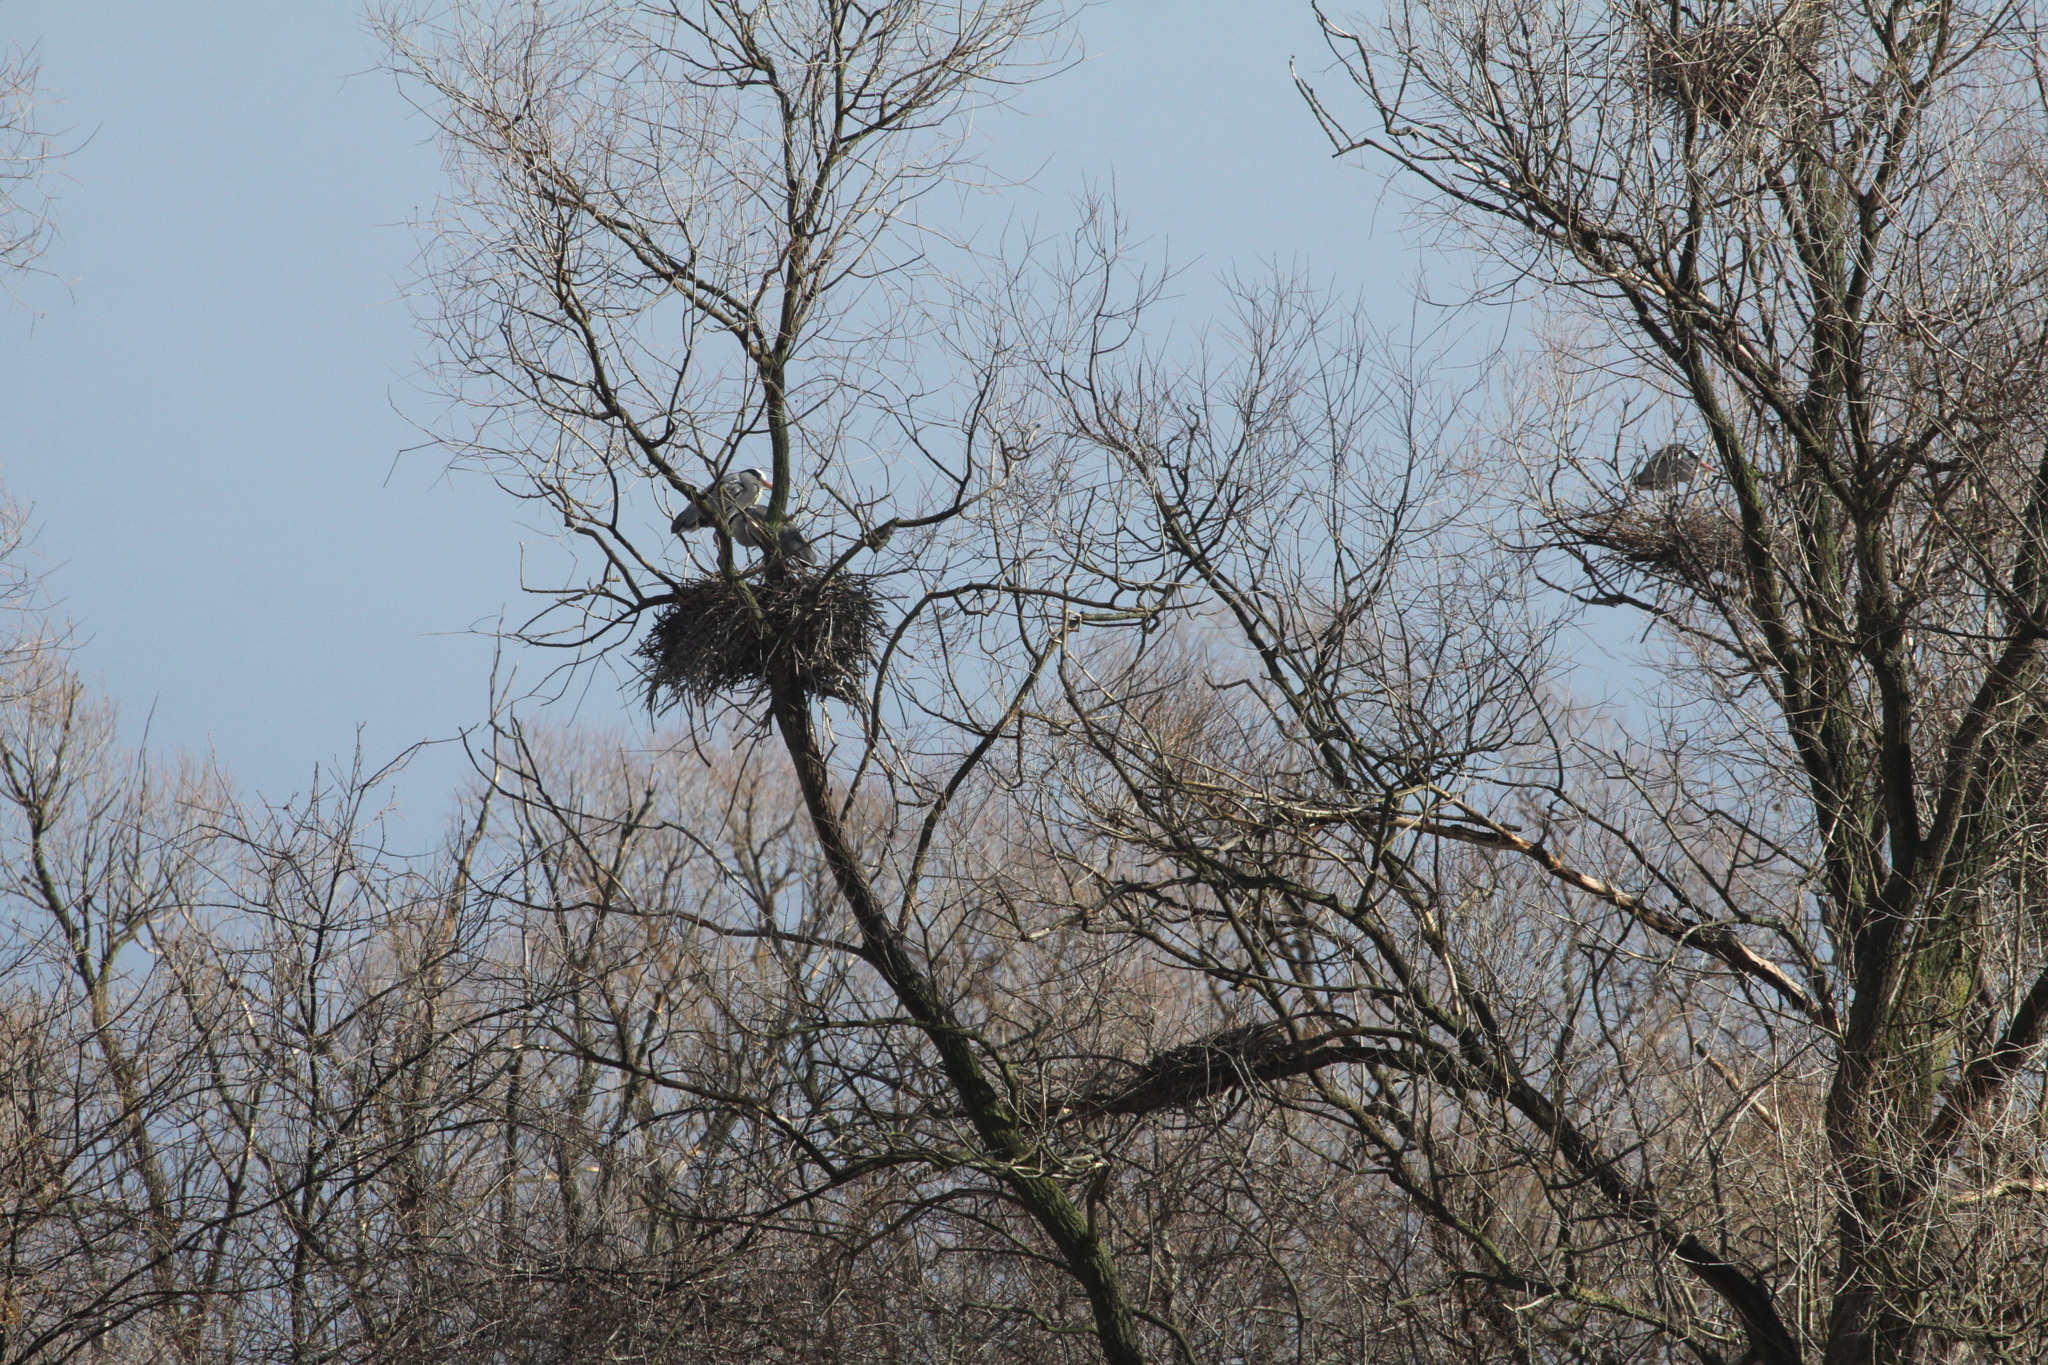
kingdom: Animalia
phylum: Chordata
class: Aves
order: Pelecaniformes
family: Ardeidae
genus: Ardea
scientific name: Ardea cinerea
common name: Grey heron
